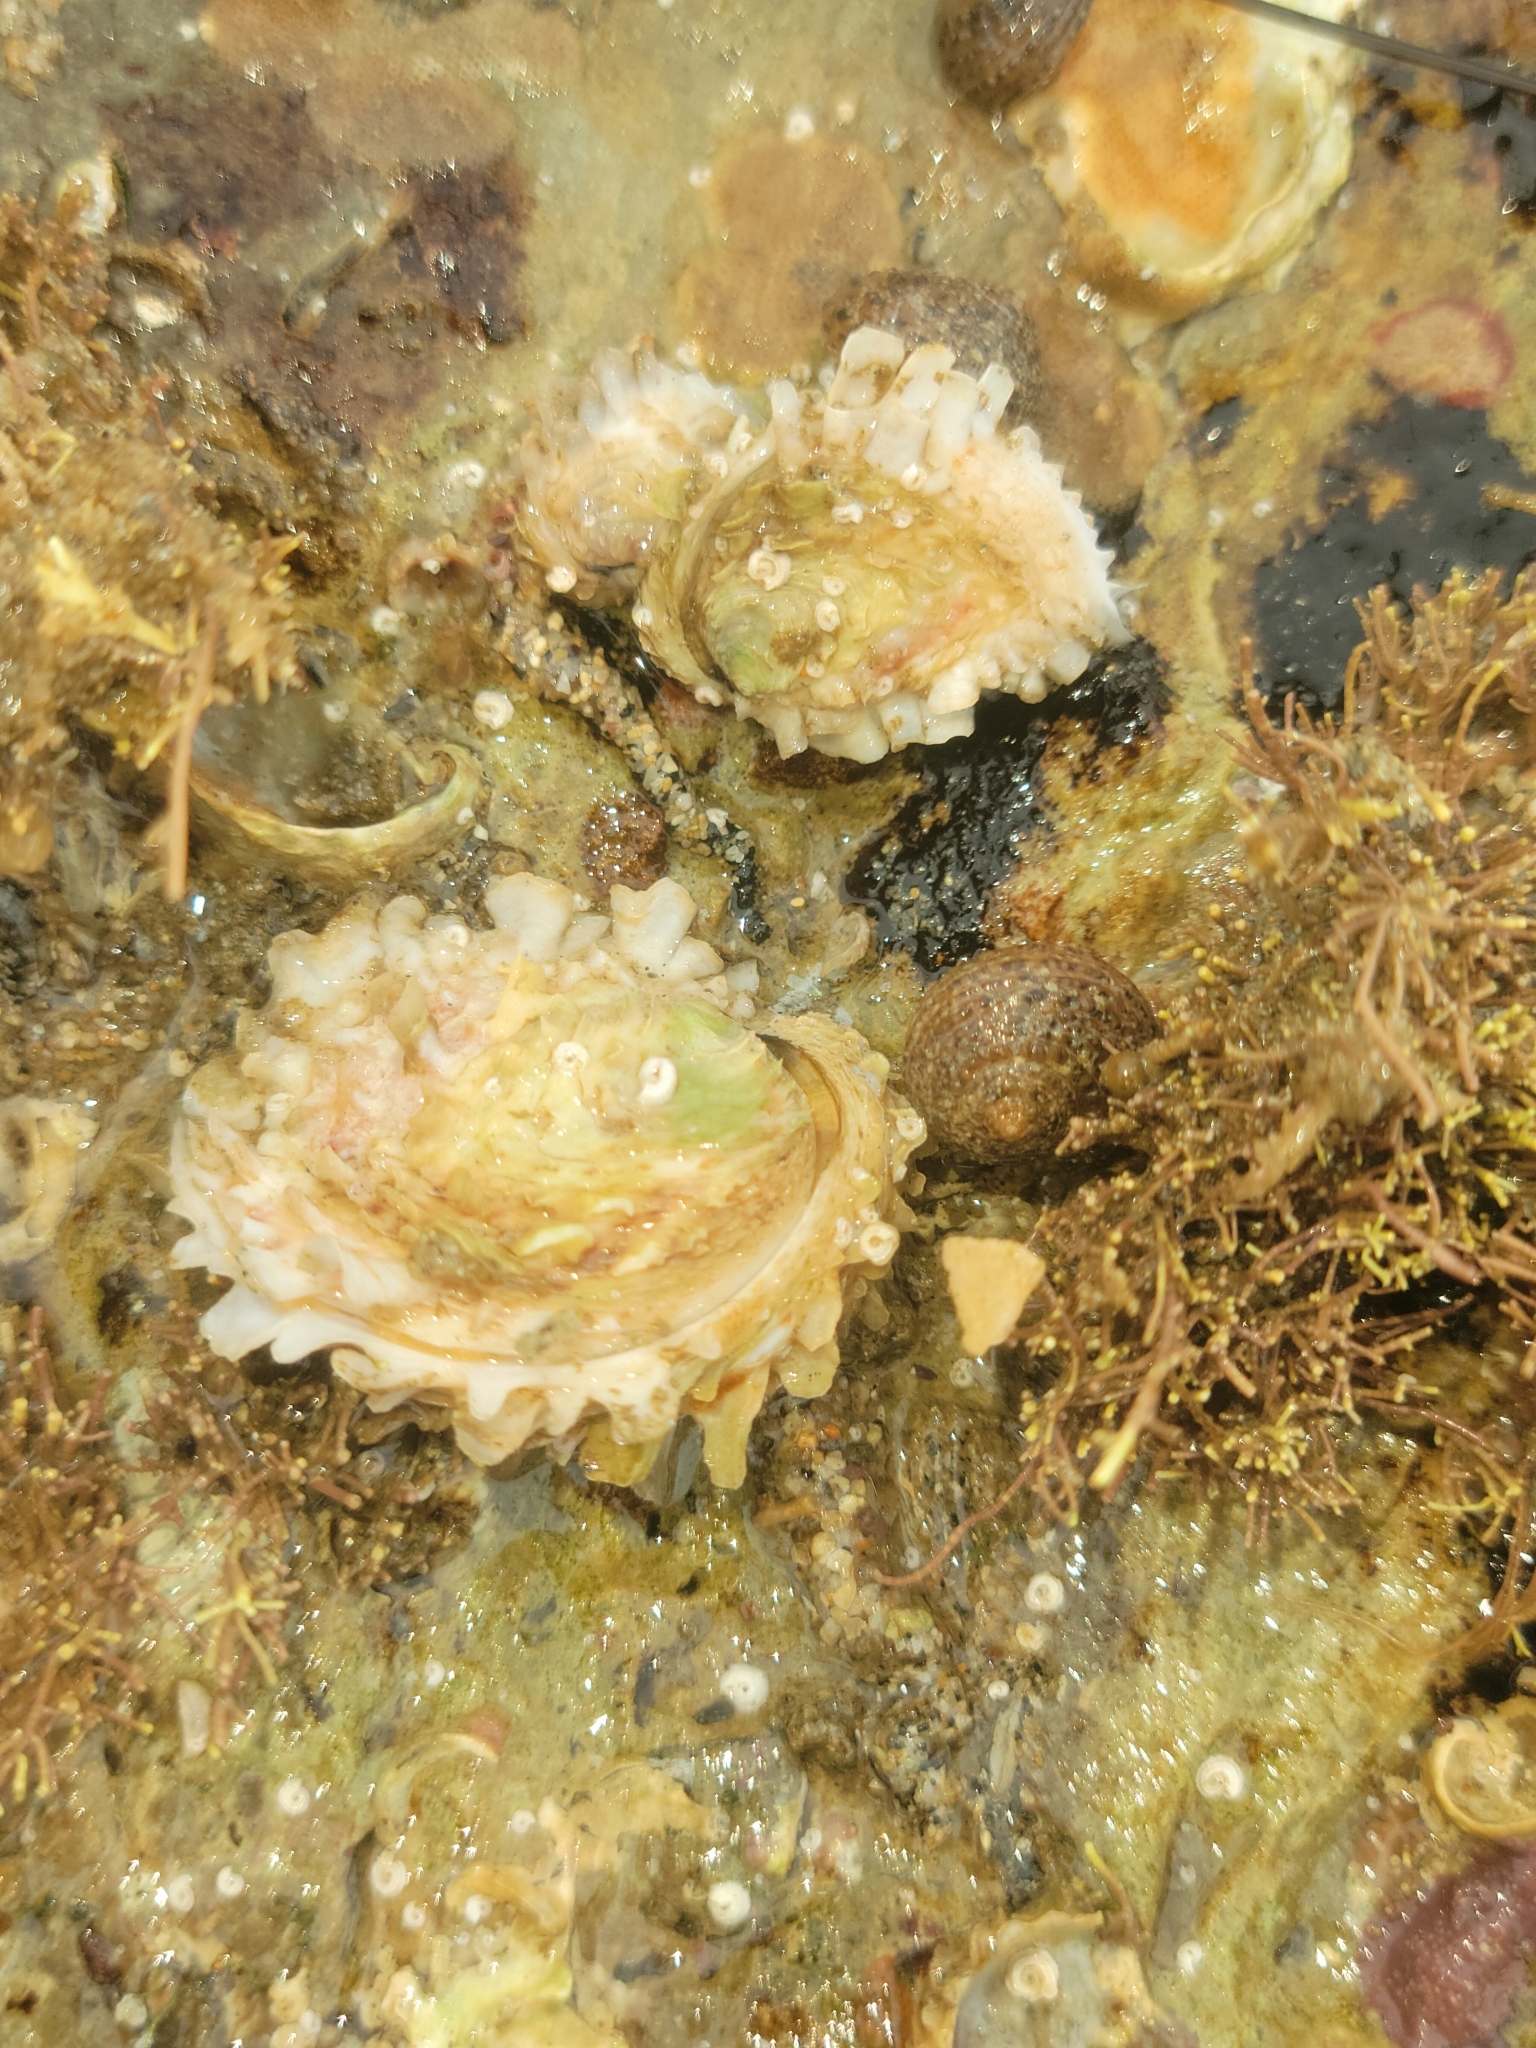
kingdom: Animalia
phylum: Mollusca
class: Bivalvia
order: Venerida
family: Chamidae
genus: Chama
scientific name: Chama arcana
